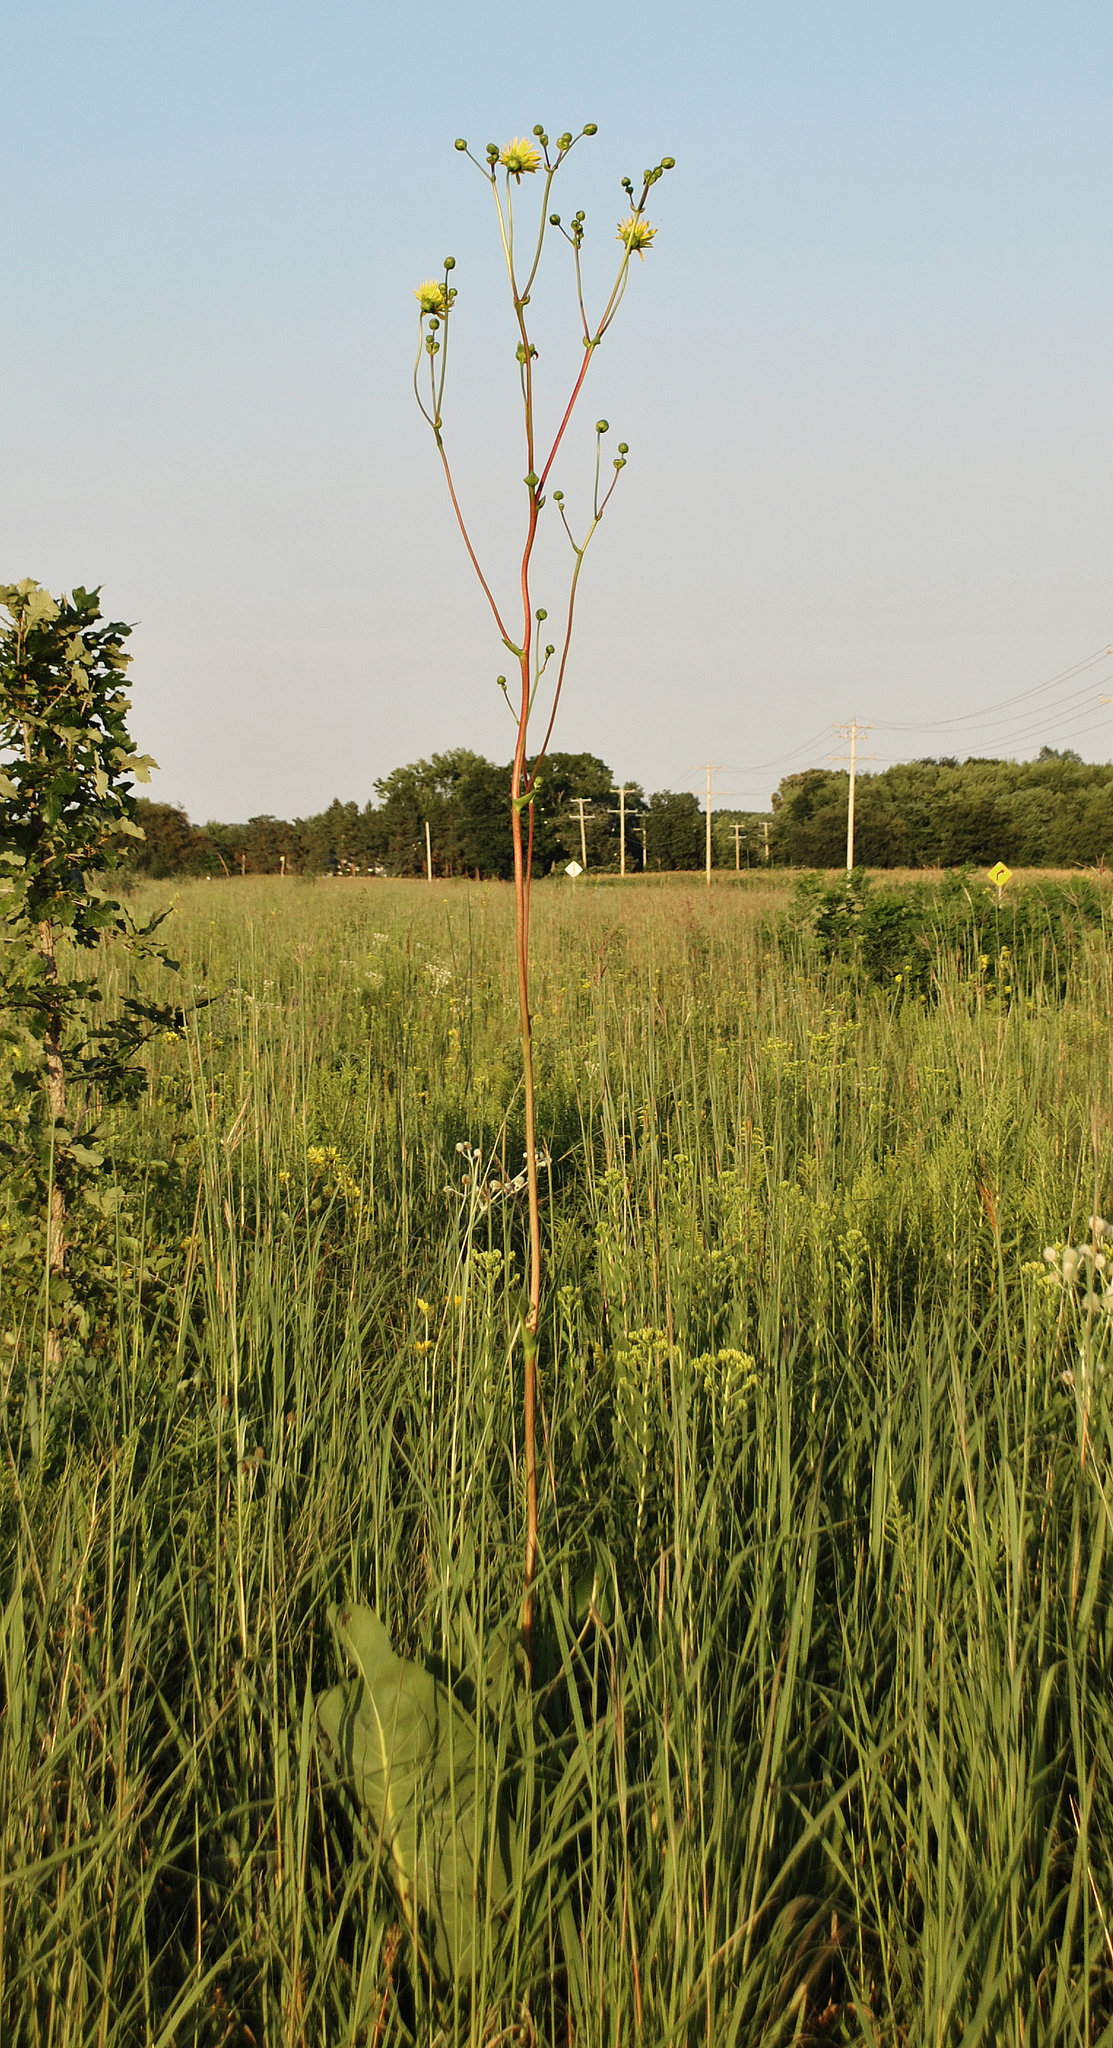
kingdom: Plantae
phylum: Tracheophyta
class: Magnoliopsida
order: Asterales
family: Asteraceae
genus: Silphium
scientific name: Silphium terebinthinaceum
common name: Basal-leaf rosinweed
